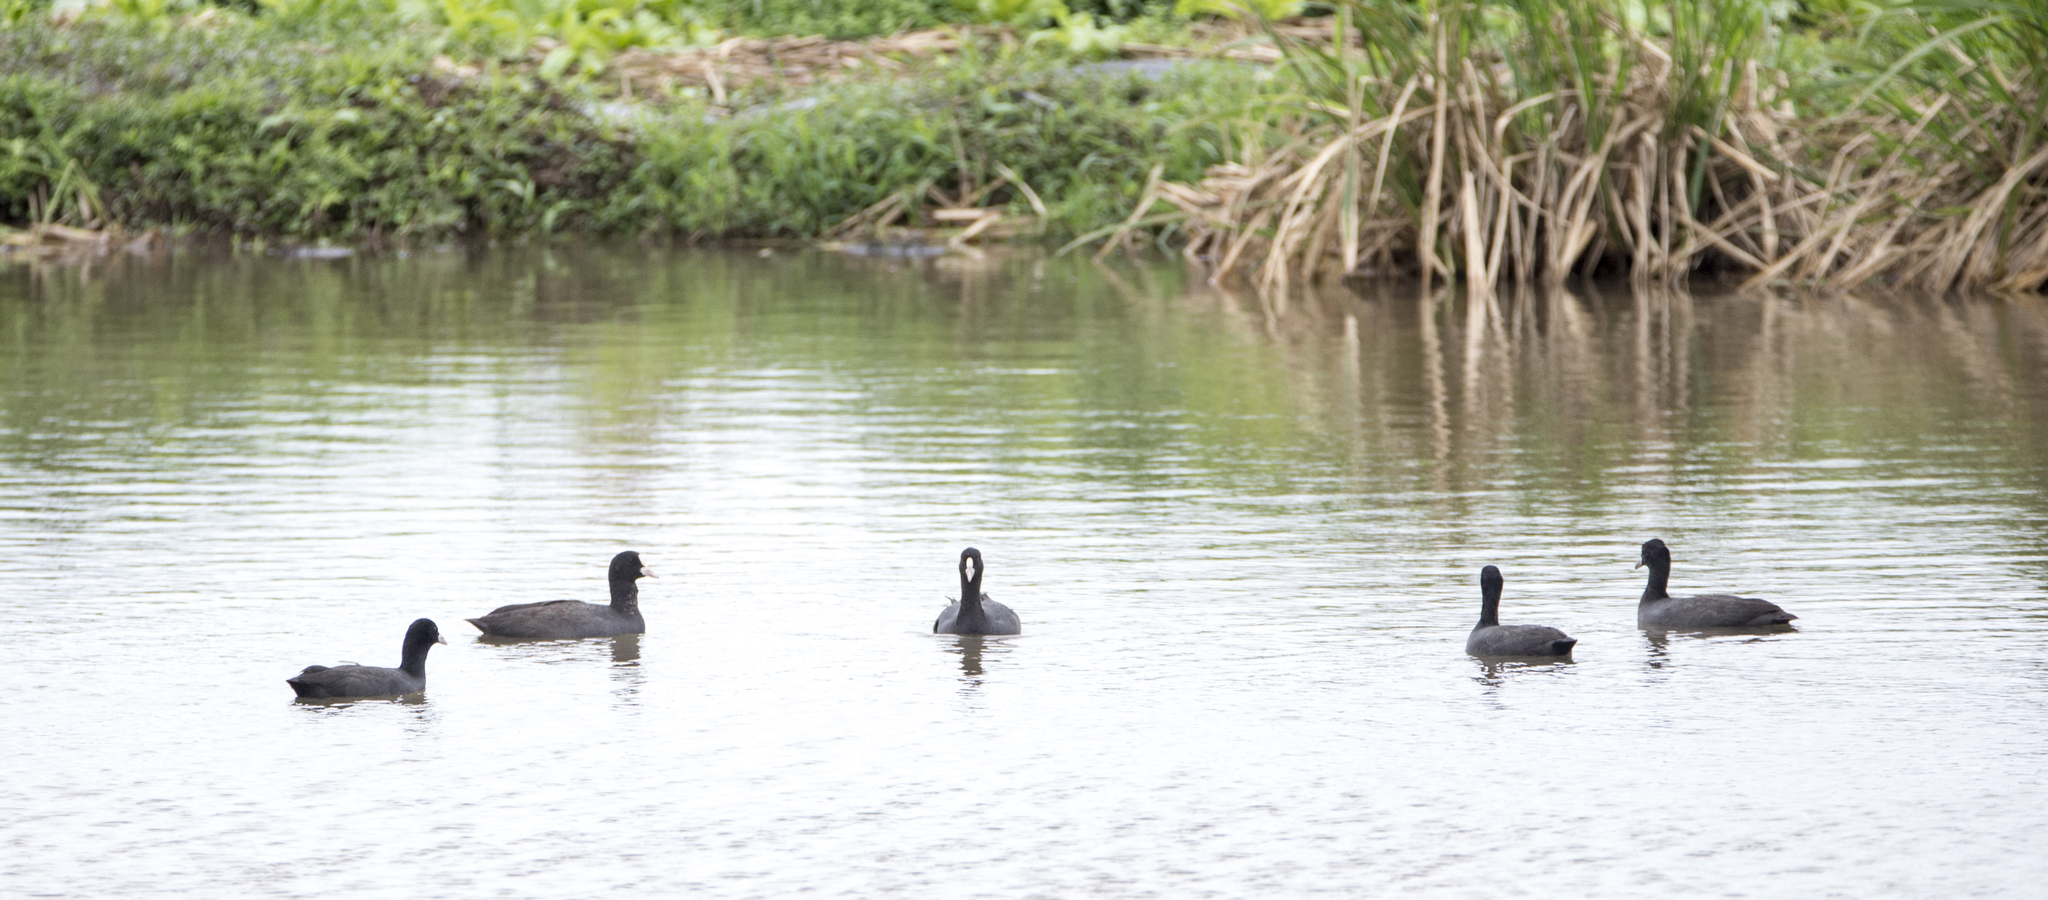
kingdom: Animalia
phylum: Chordata
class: Aves
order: Gruiformes
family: Rallidae
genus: Fulica
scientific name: Fulica atra
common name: Eurasian coot
